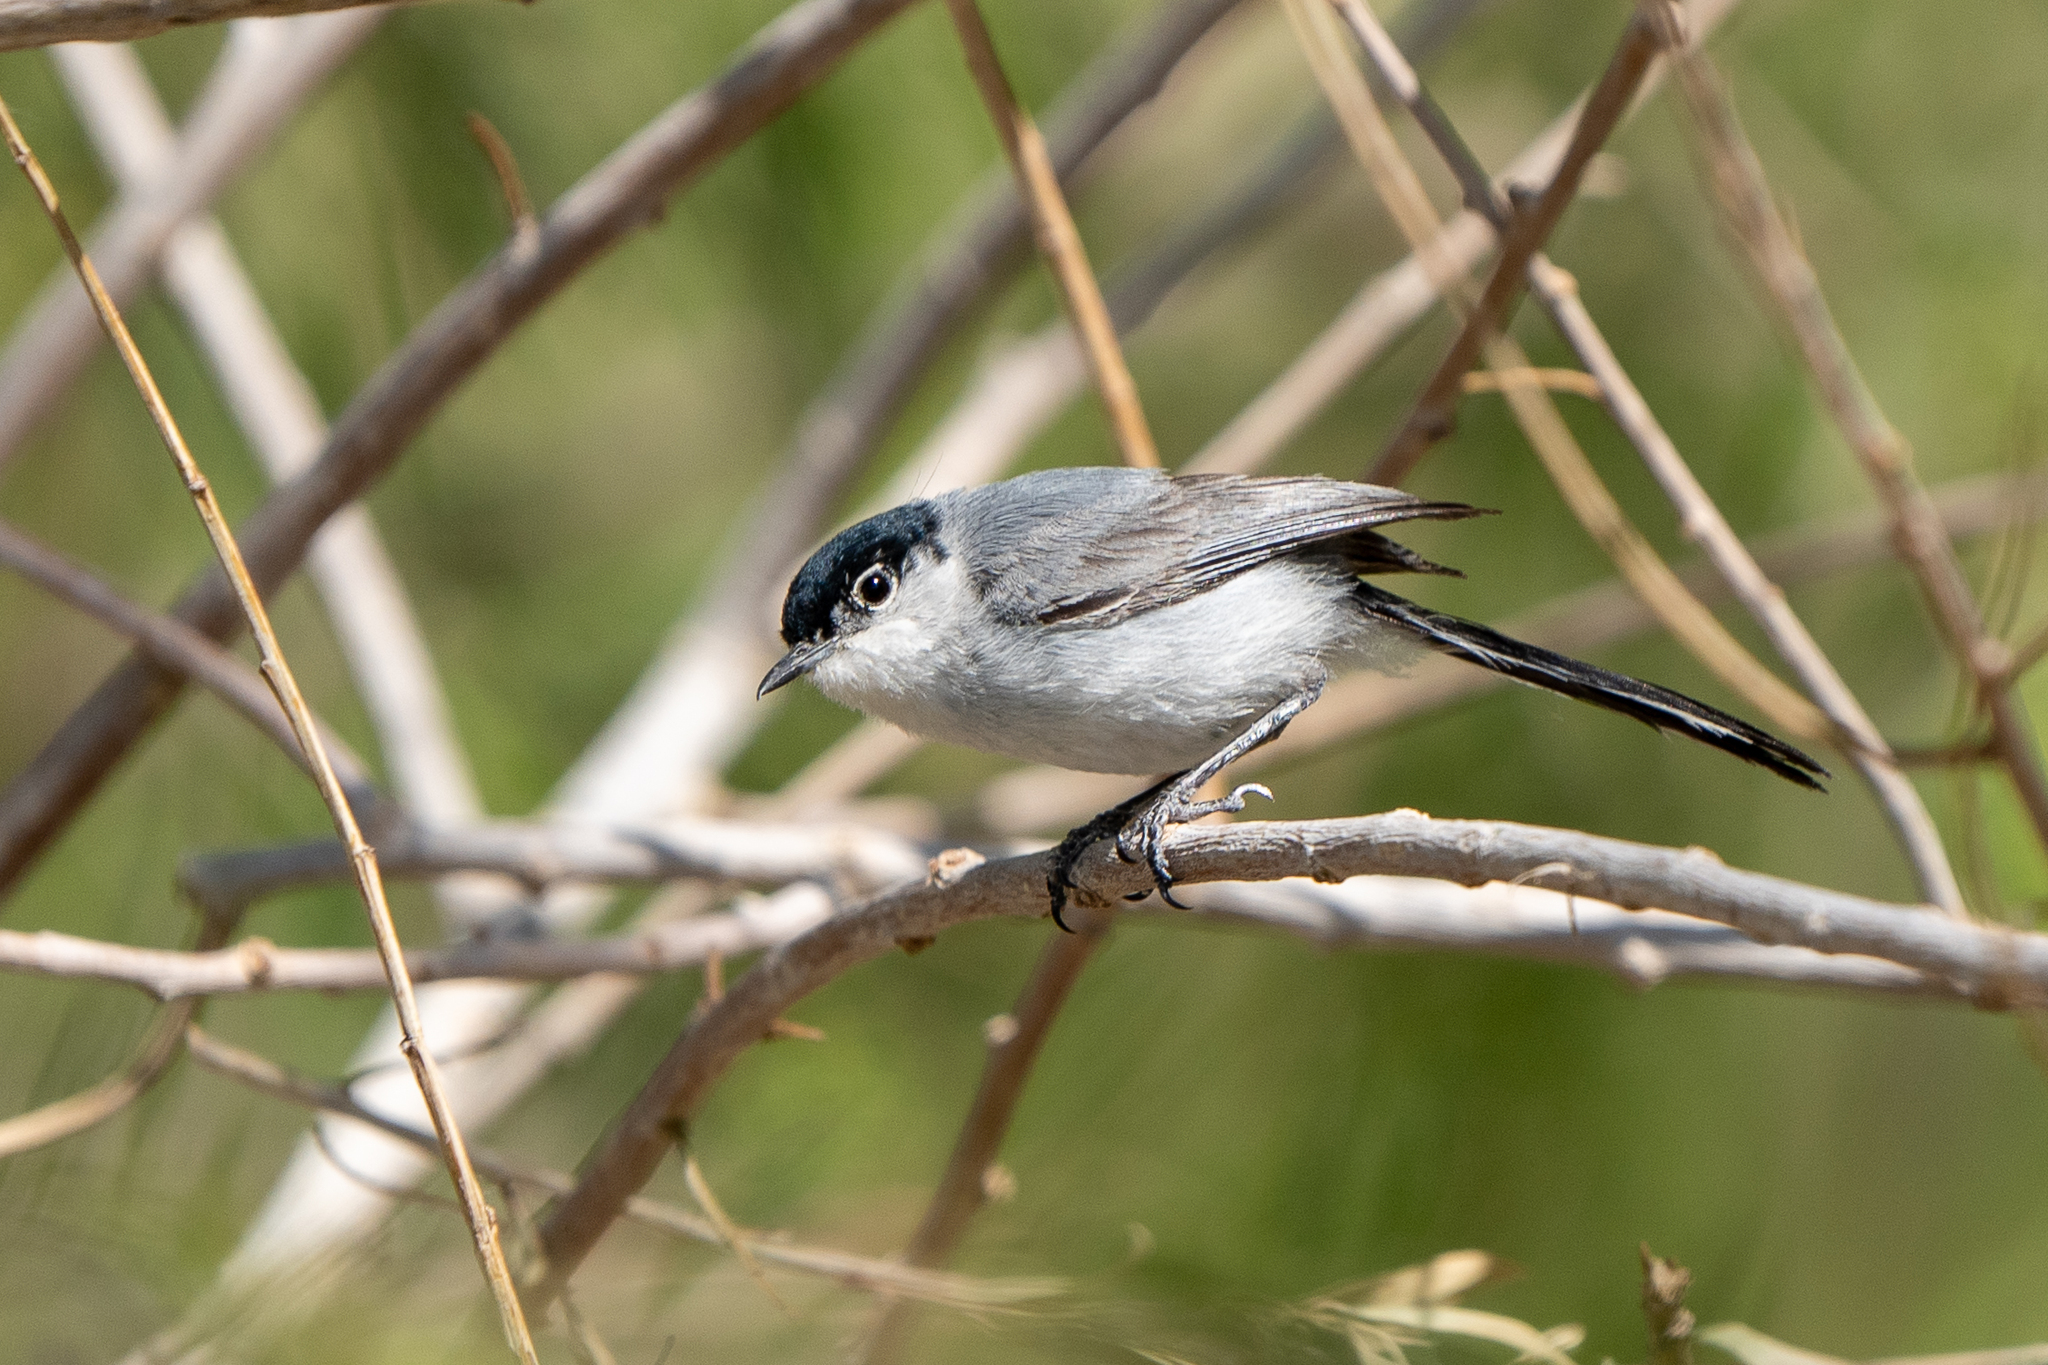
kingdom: Animalia
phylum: Chordata
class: Aves
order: Passeriformes
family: Polioptilidae
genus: Polioptila
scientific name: Polioptila melanura
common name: Black-tailed gnatcatcher
